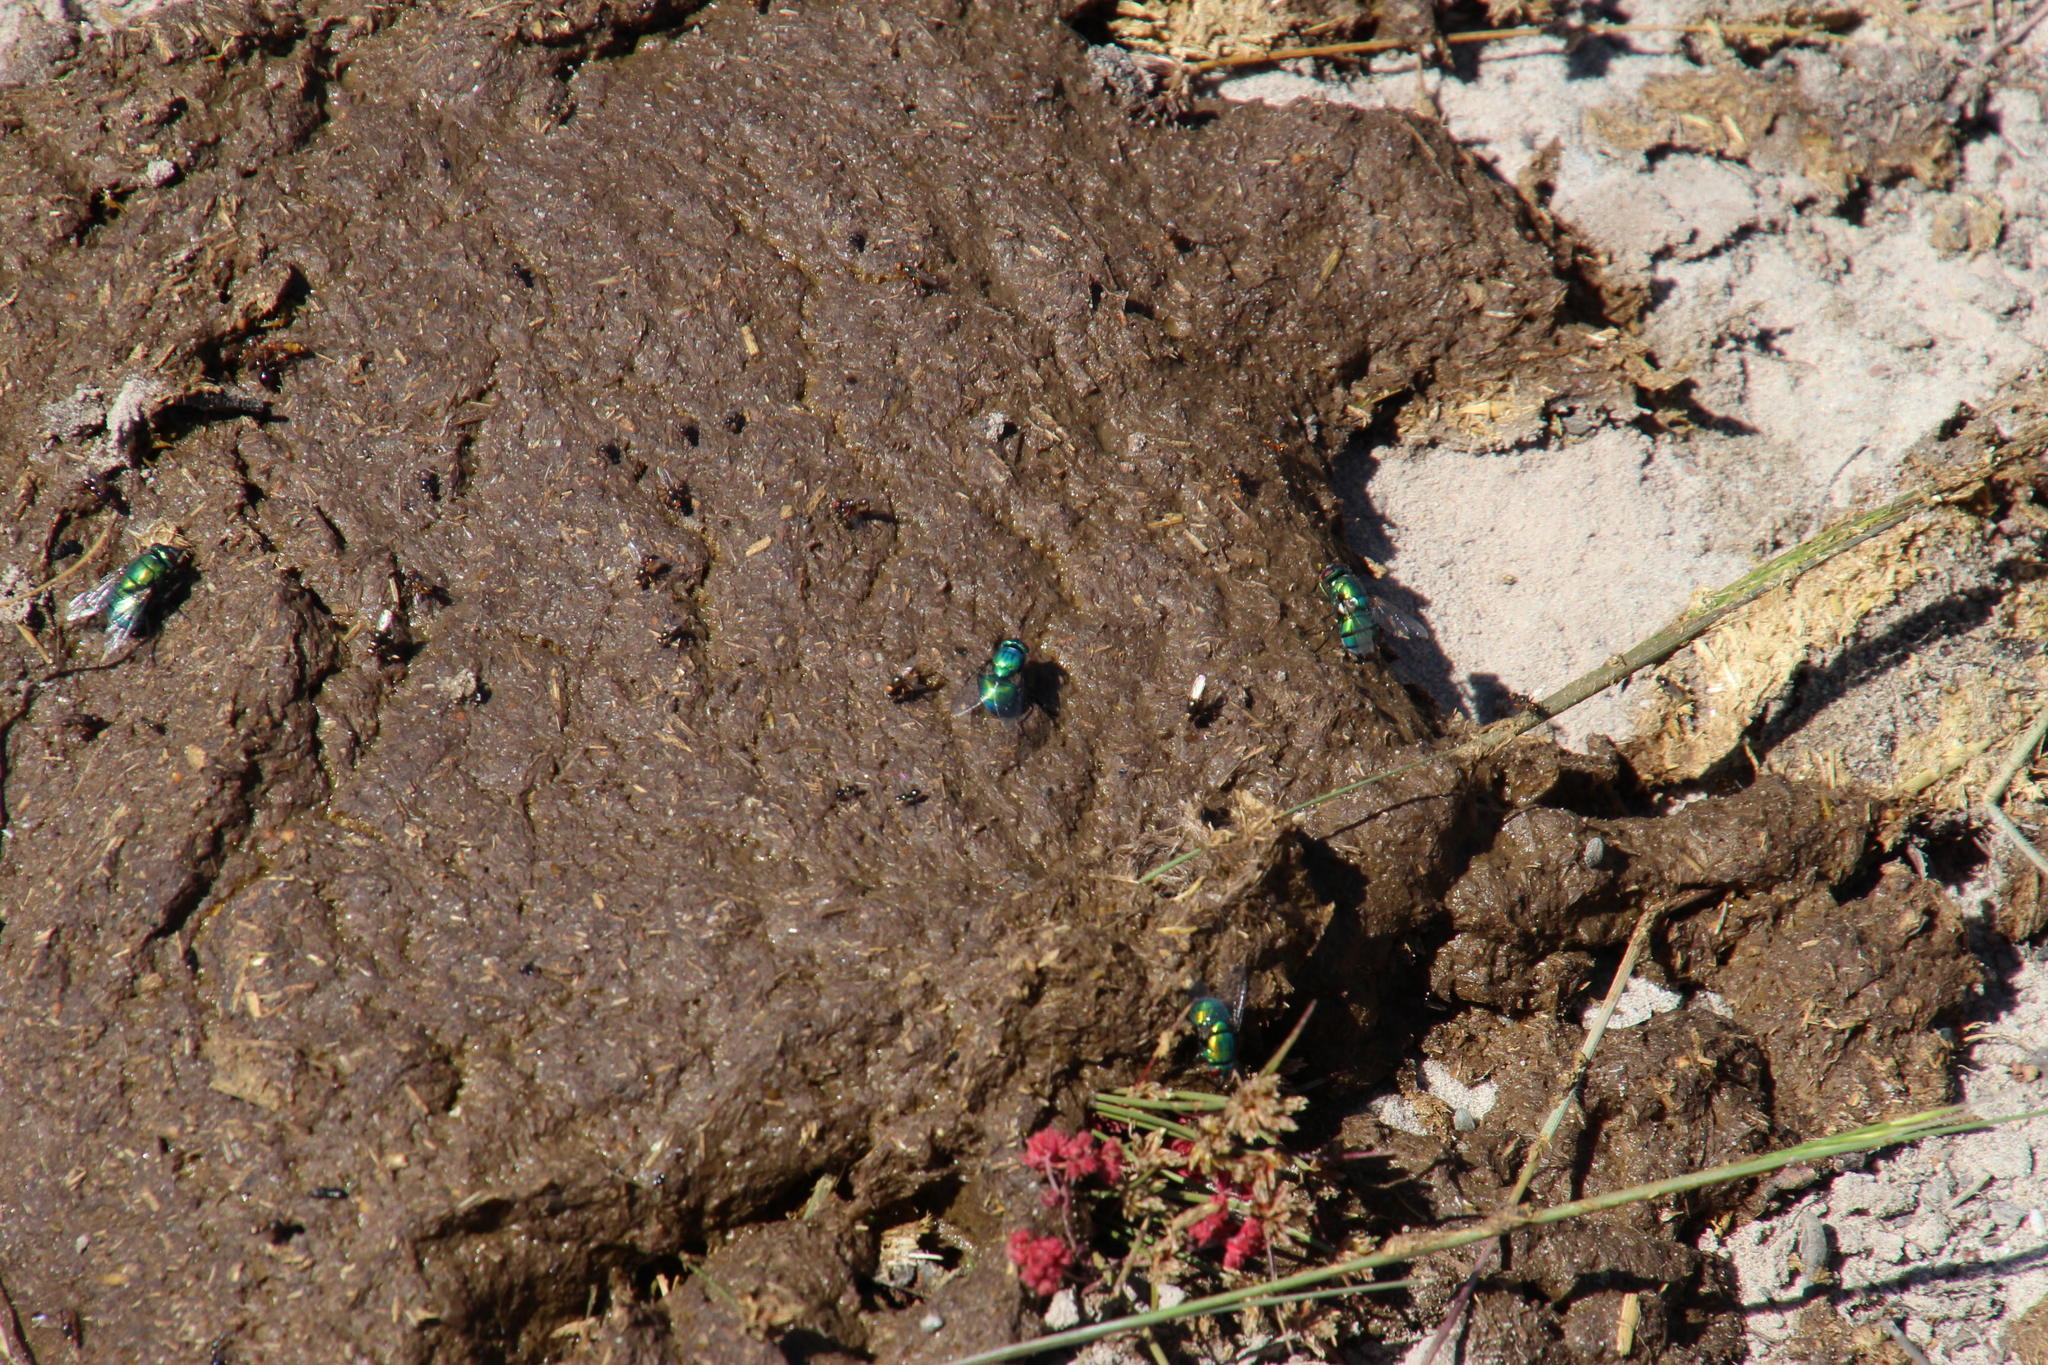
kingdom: Animalia
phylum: Chordata
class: Mammalia
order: Artiodactyla
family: Bovidae
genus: Bos
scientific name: Bos
